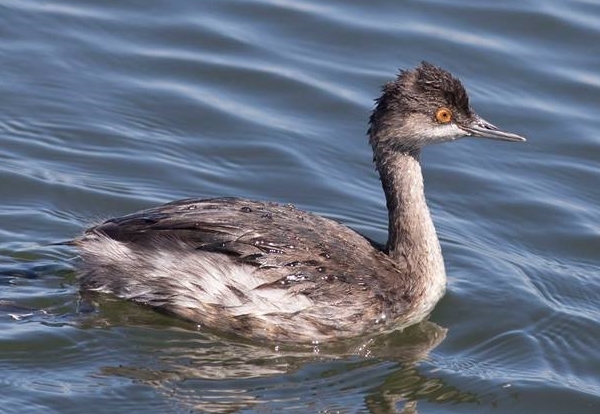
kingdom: Animalia
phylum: Chordata
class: Aves
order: Podicipediformes
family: Podicipedidae
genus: Podiceps
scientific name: Podiceps nigricollis
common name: Black-necked grebe
